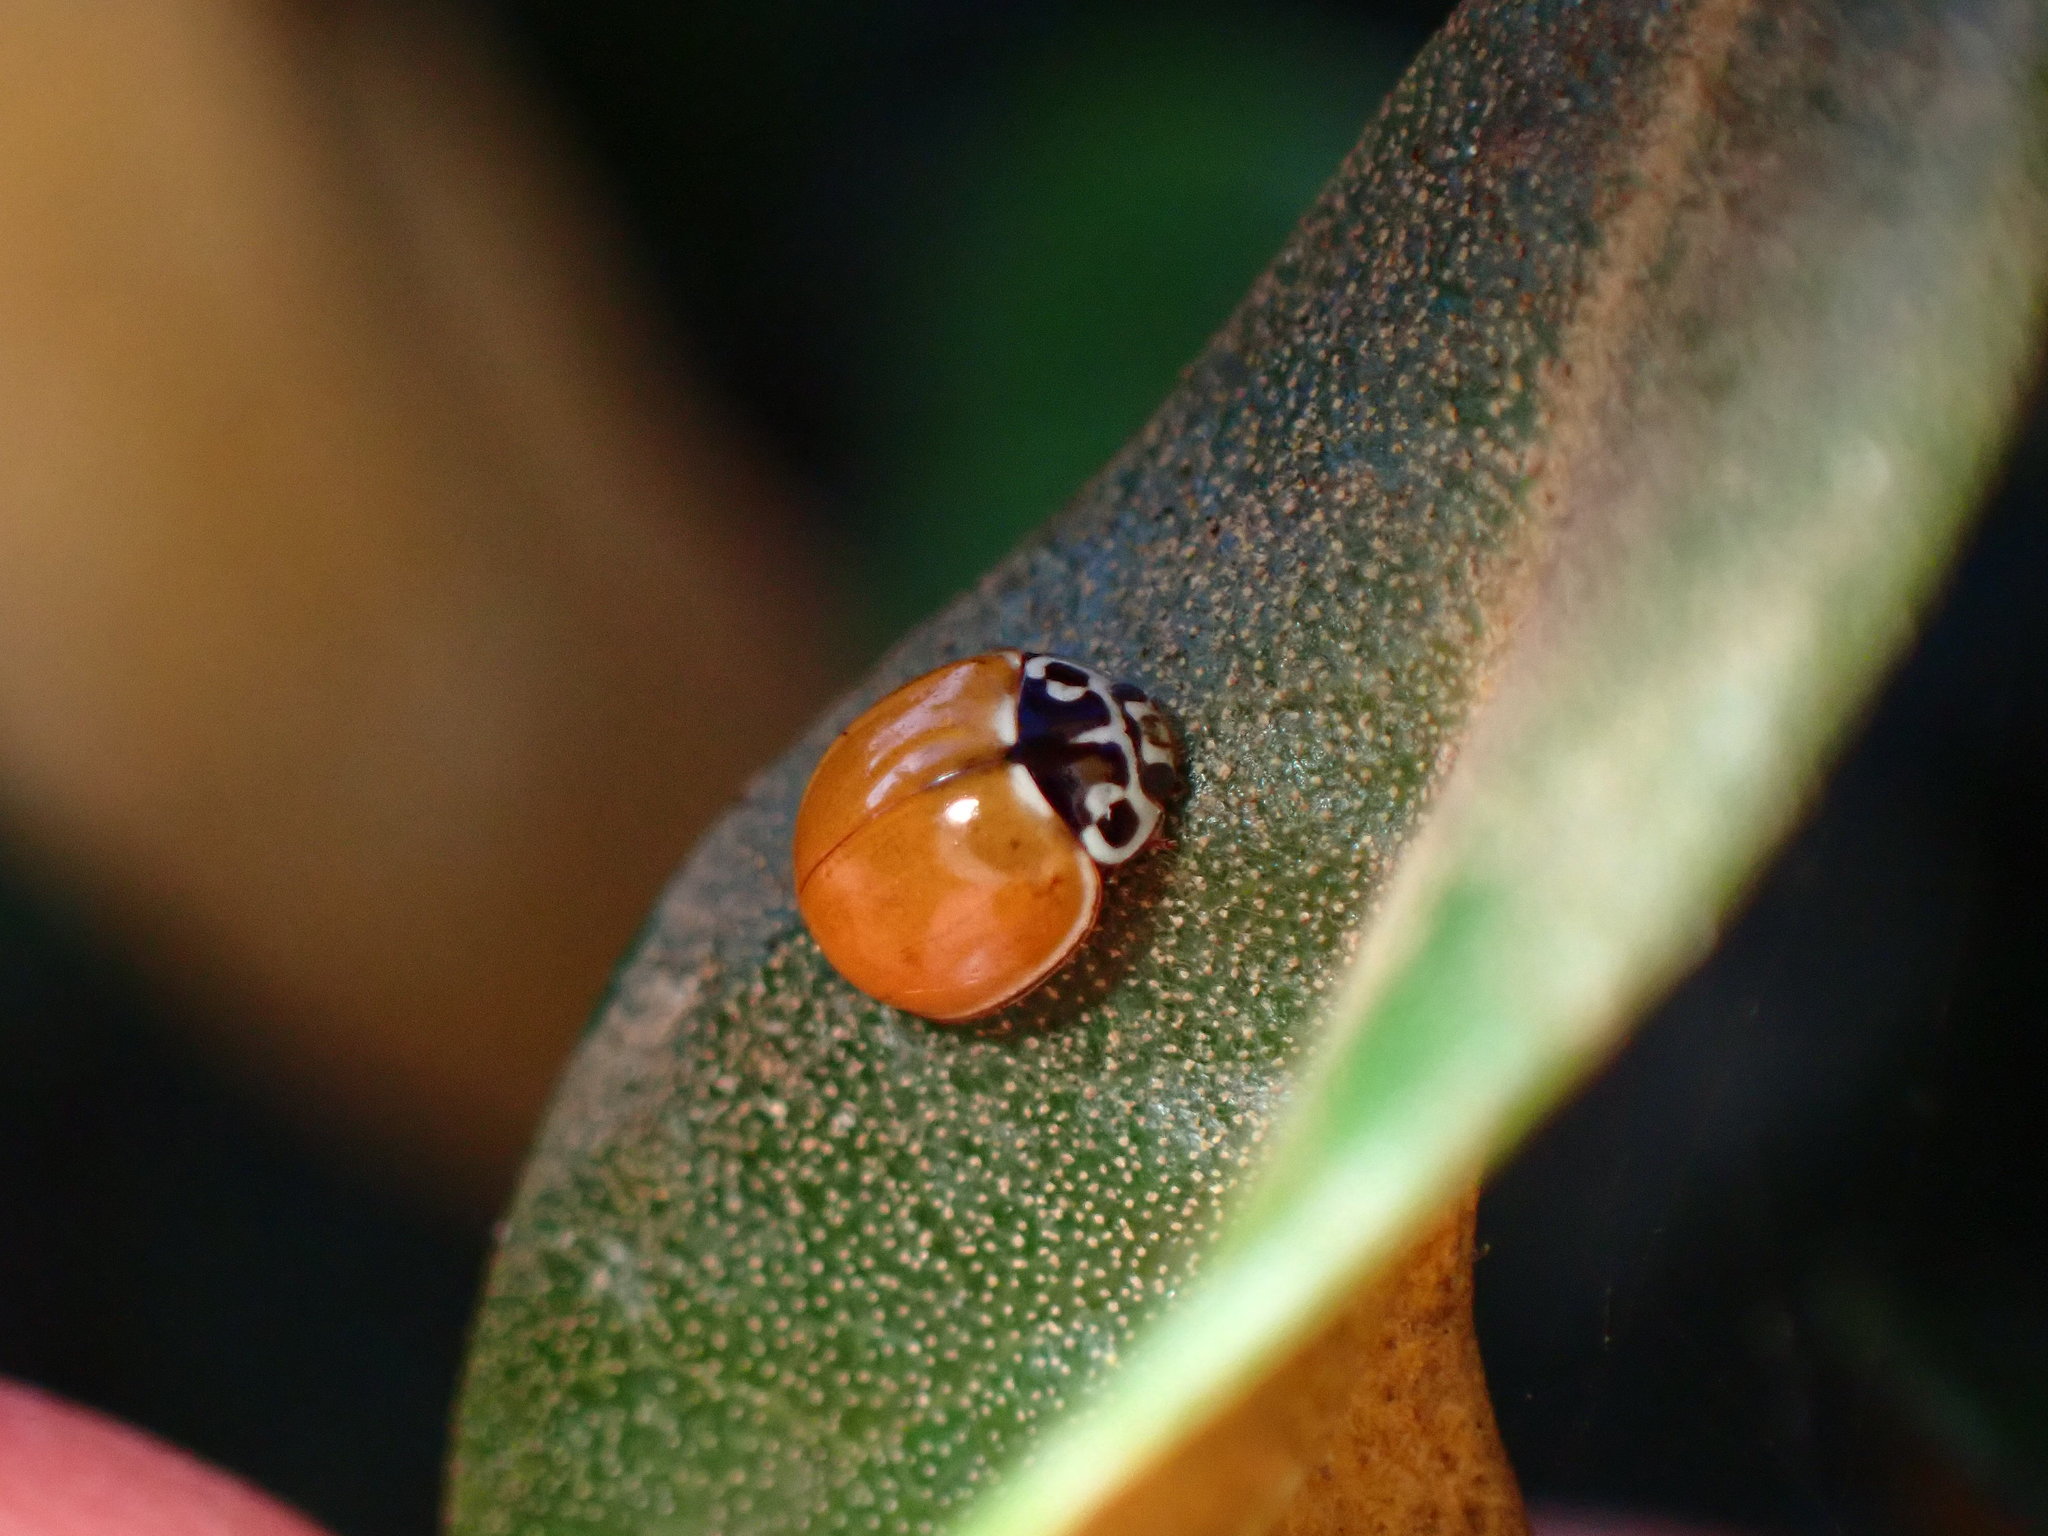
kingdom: Animalia
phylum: Arthropoda
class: Insecta
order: Coleoptera
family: Coccinellidae
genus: Cycloneda
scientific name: Cycloneda polita
